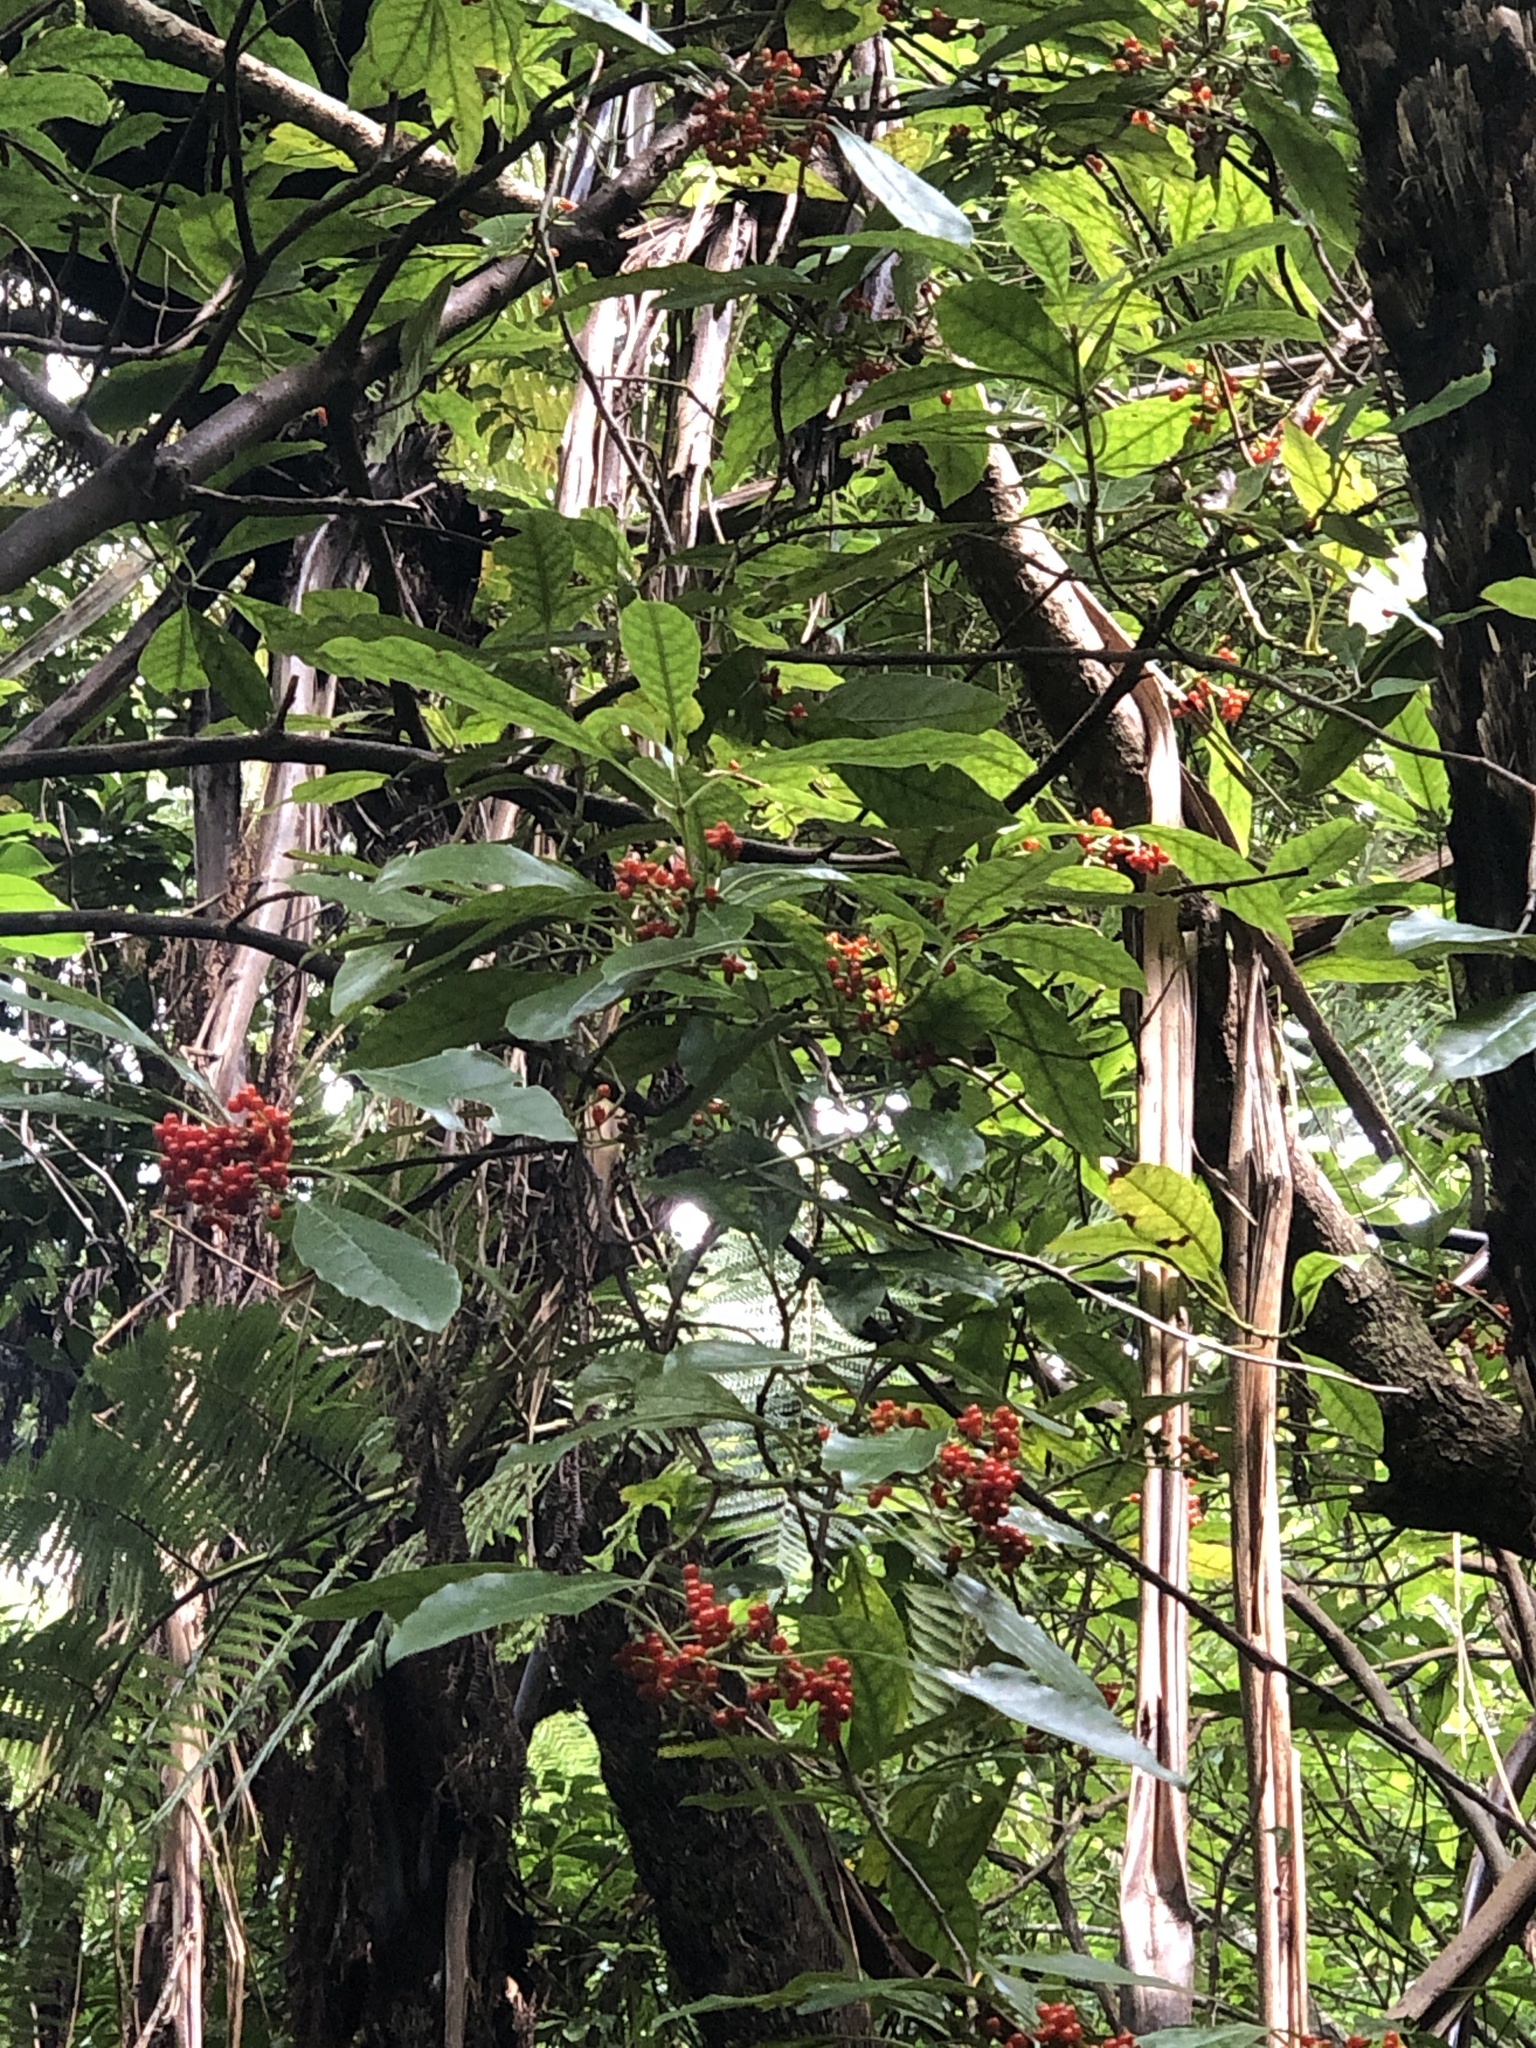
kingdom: Plantae
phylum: Tracheophyta
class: Magnoliopsida
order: Gentianales
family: Rubiaceae
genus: Coprosma
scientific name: Coprosma autumnalis
